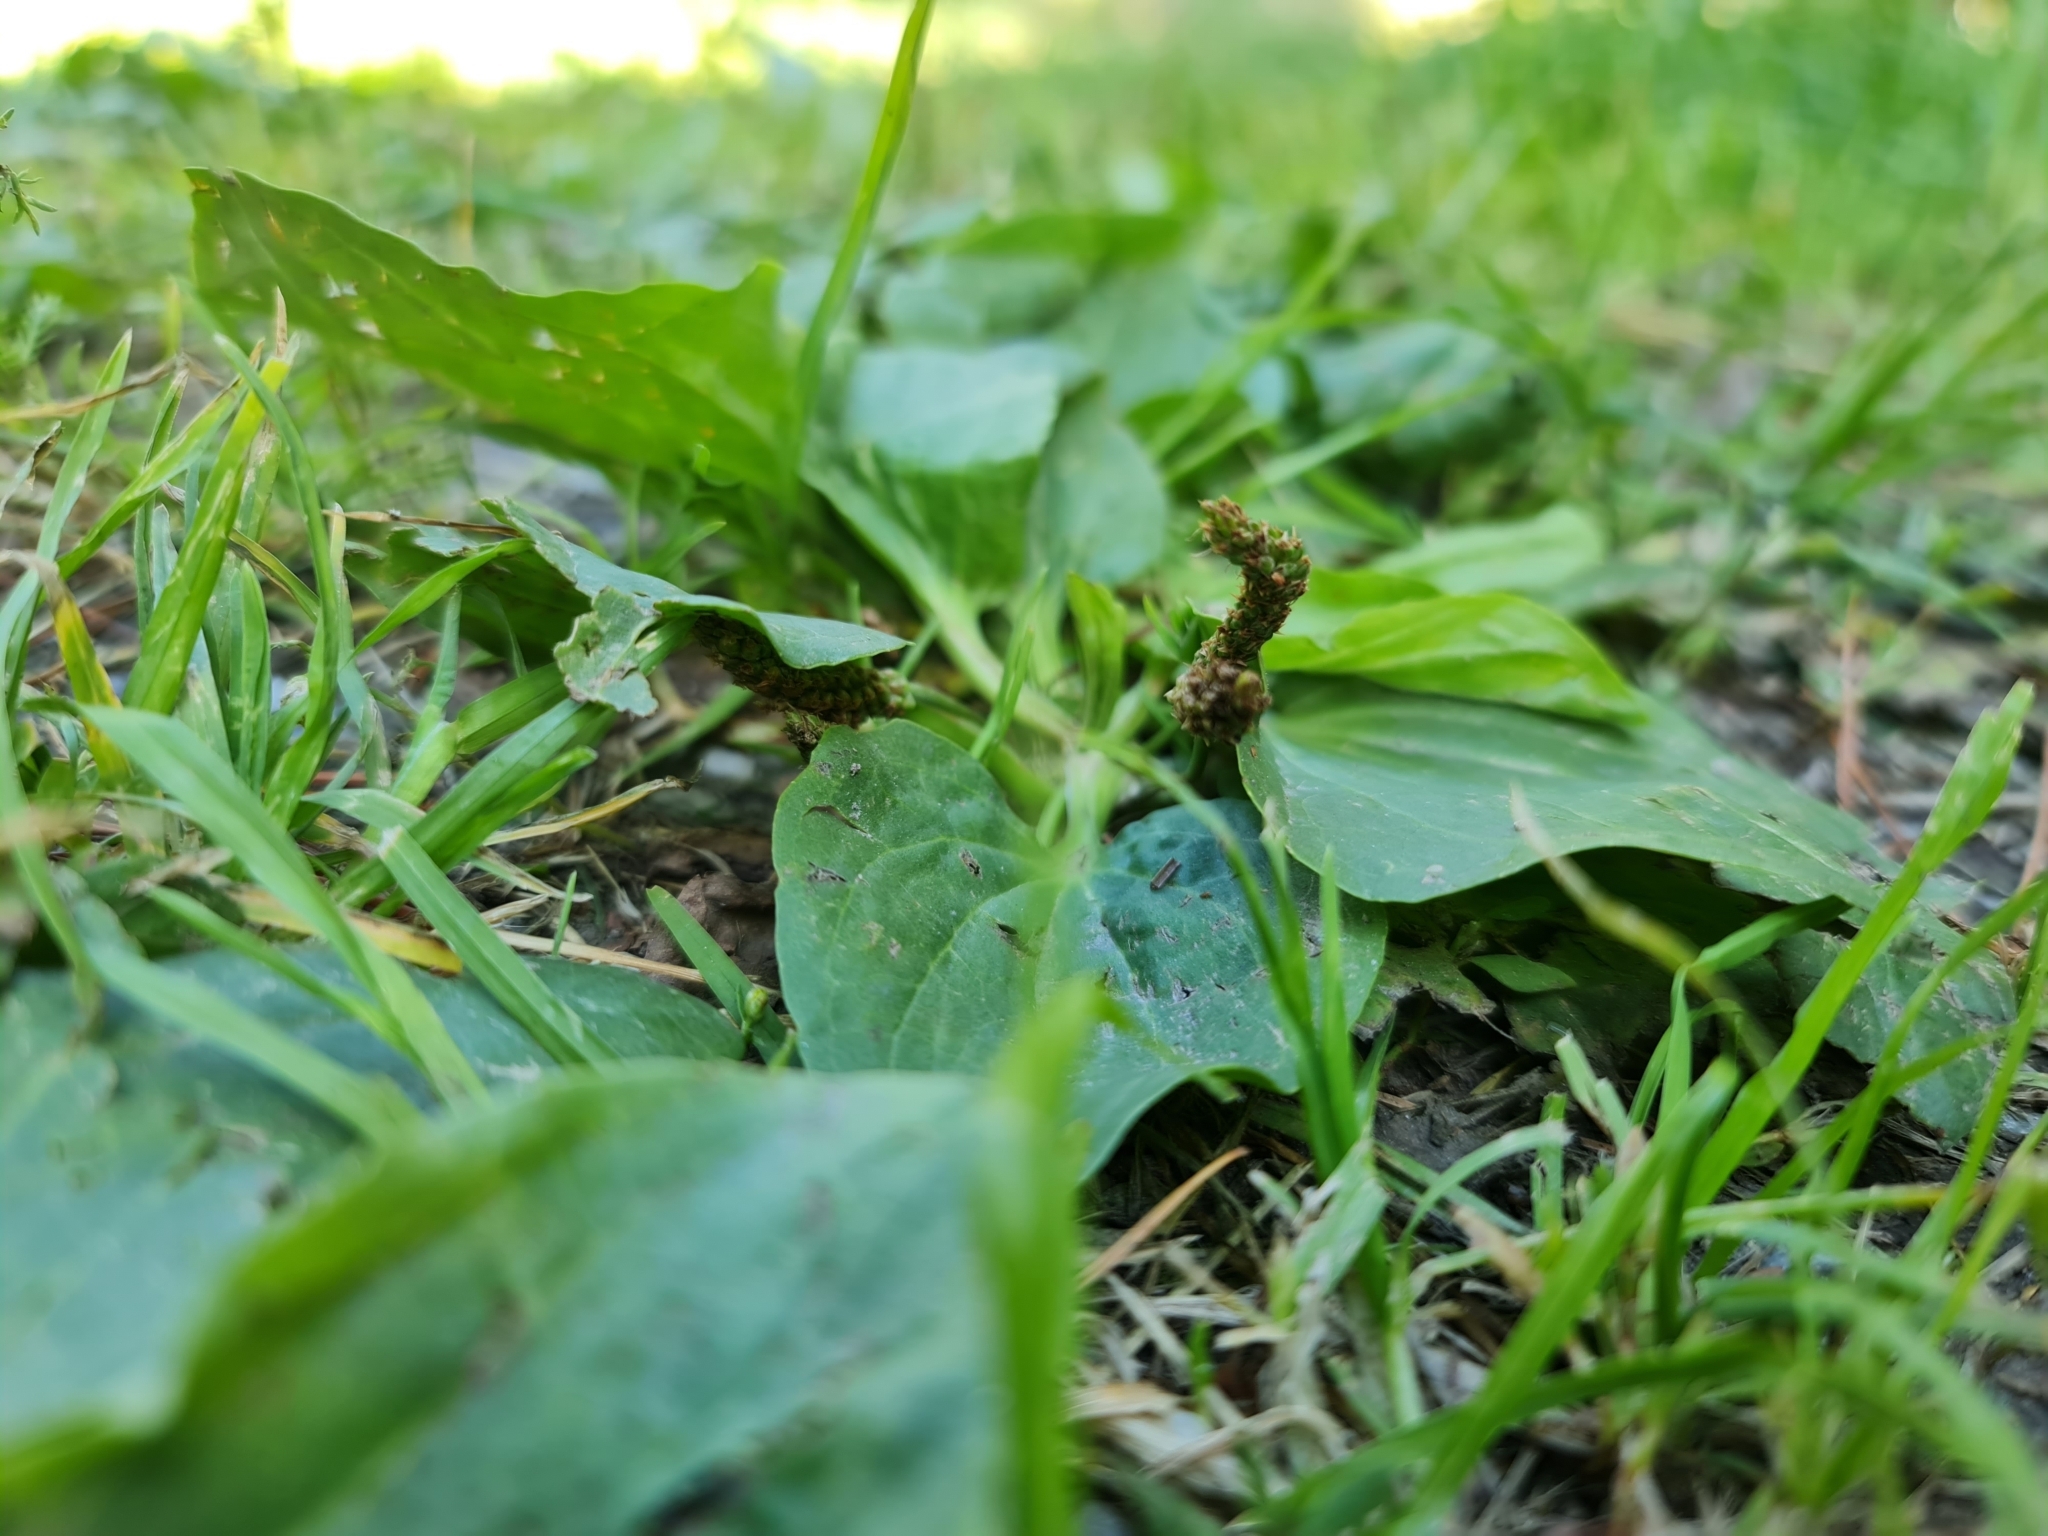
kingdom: Plantae
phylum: Tracheophyta
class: Magnoliopsida
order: Lamiales
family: Plantaginaceae
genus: Plantago
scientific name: Plantago major
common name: Common plantain
